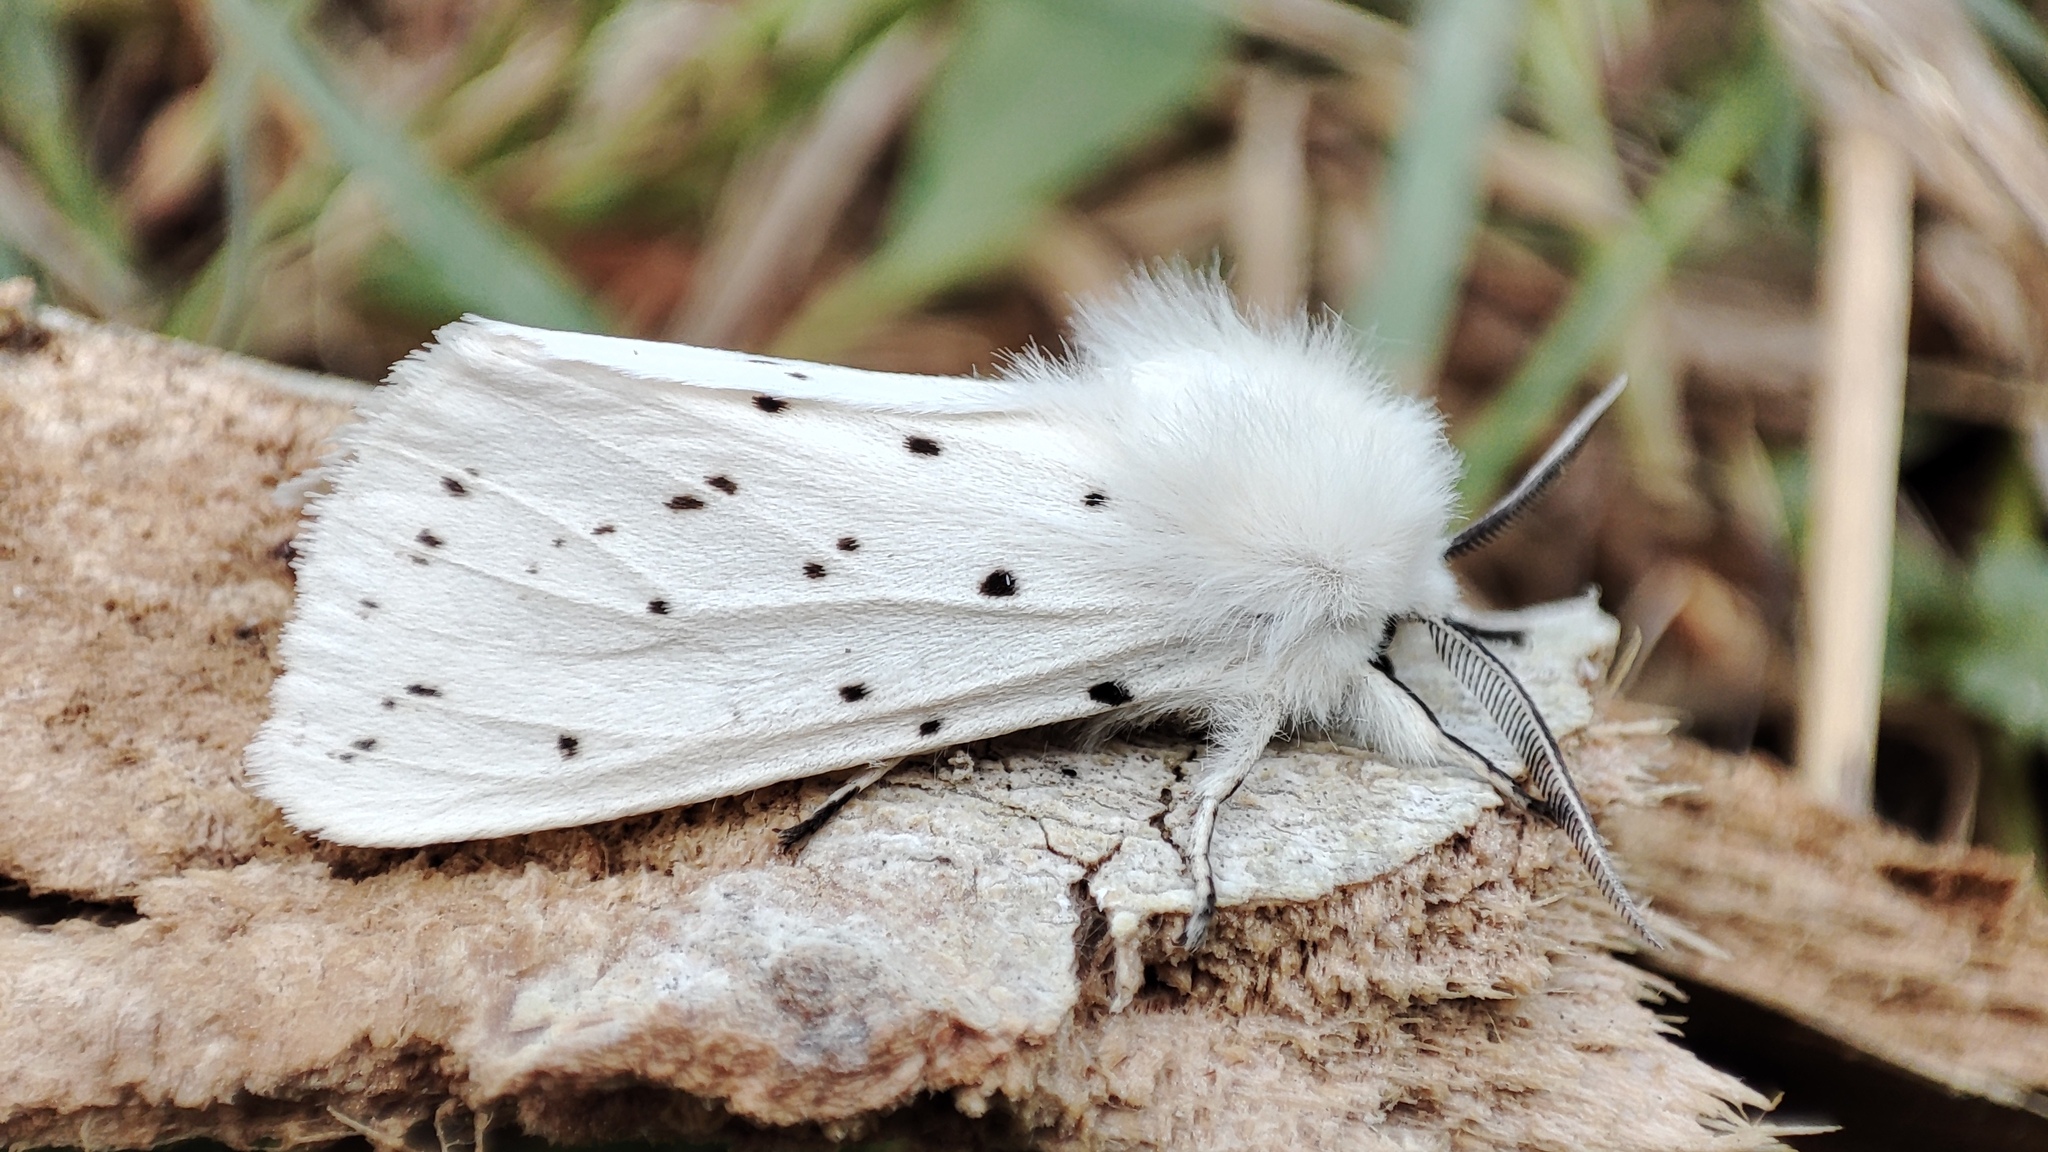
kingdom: Animalia
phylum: Arthropoda
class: Insecta
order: Lepidoptera
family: Erebidae
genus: Spilosoma
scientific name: Spilosoma lubricipeda
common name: White ermine
